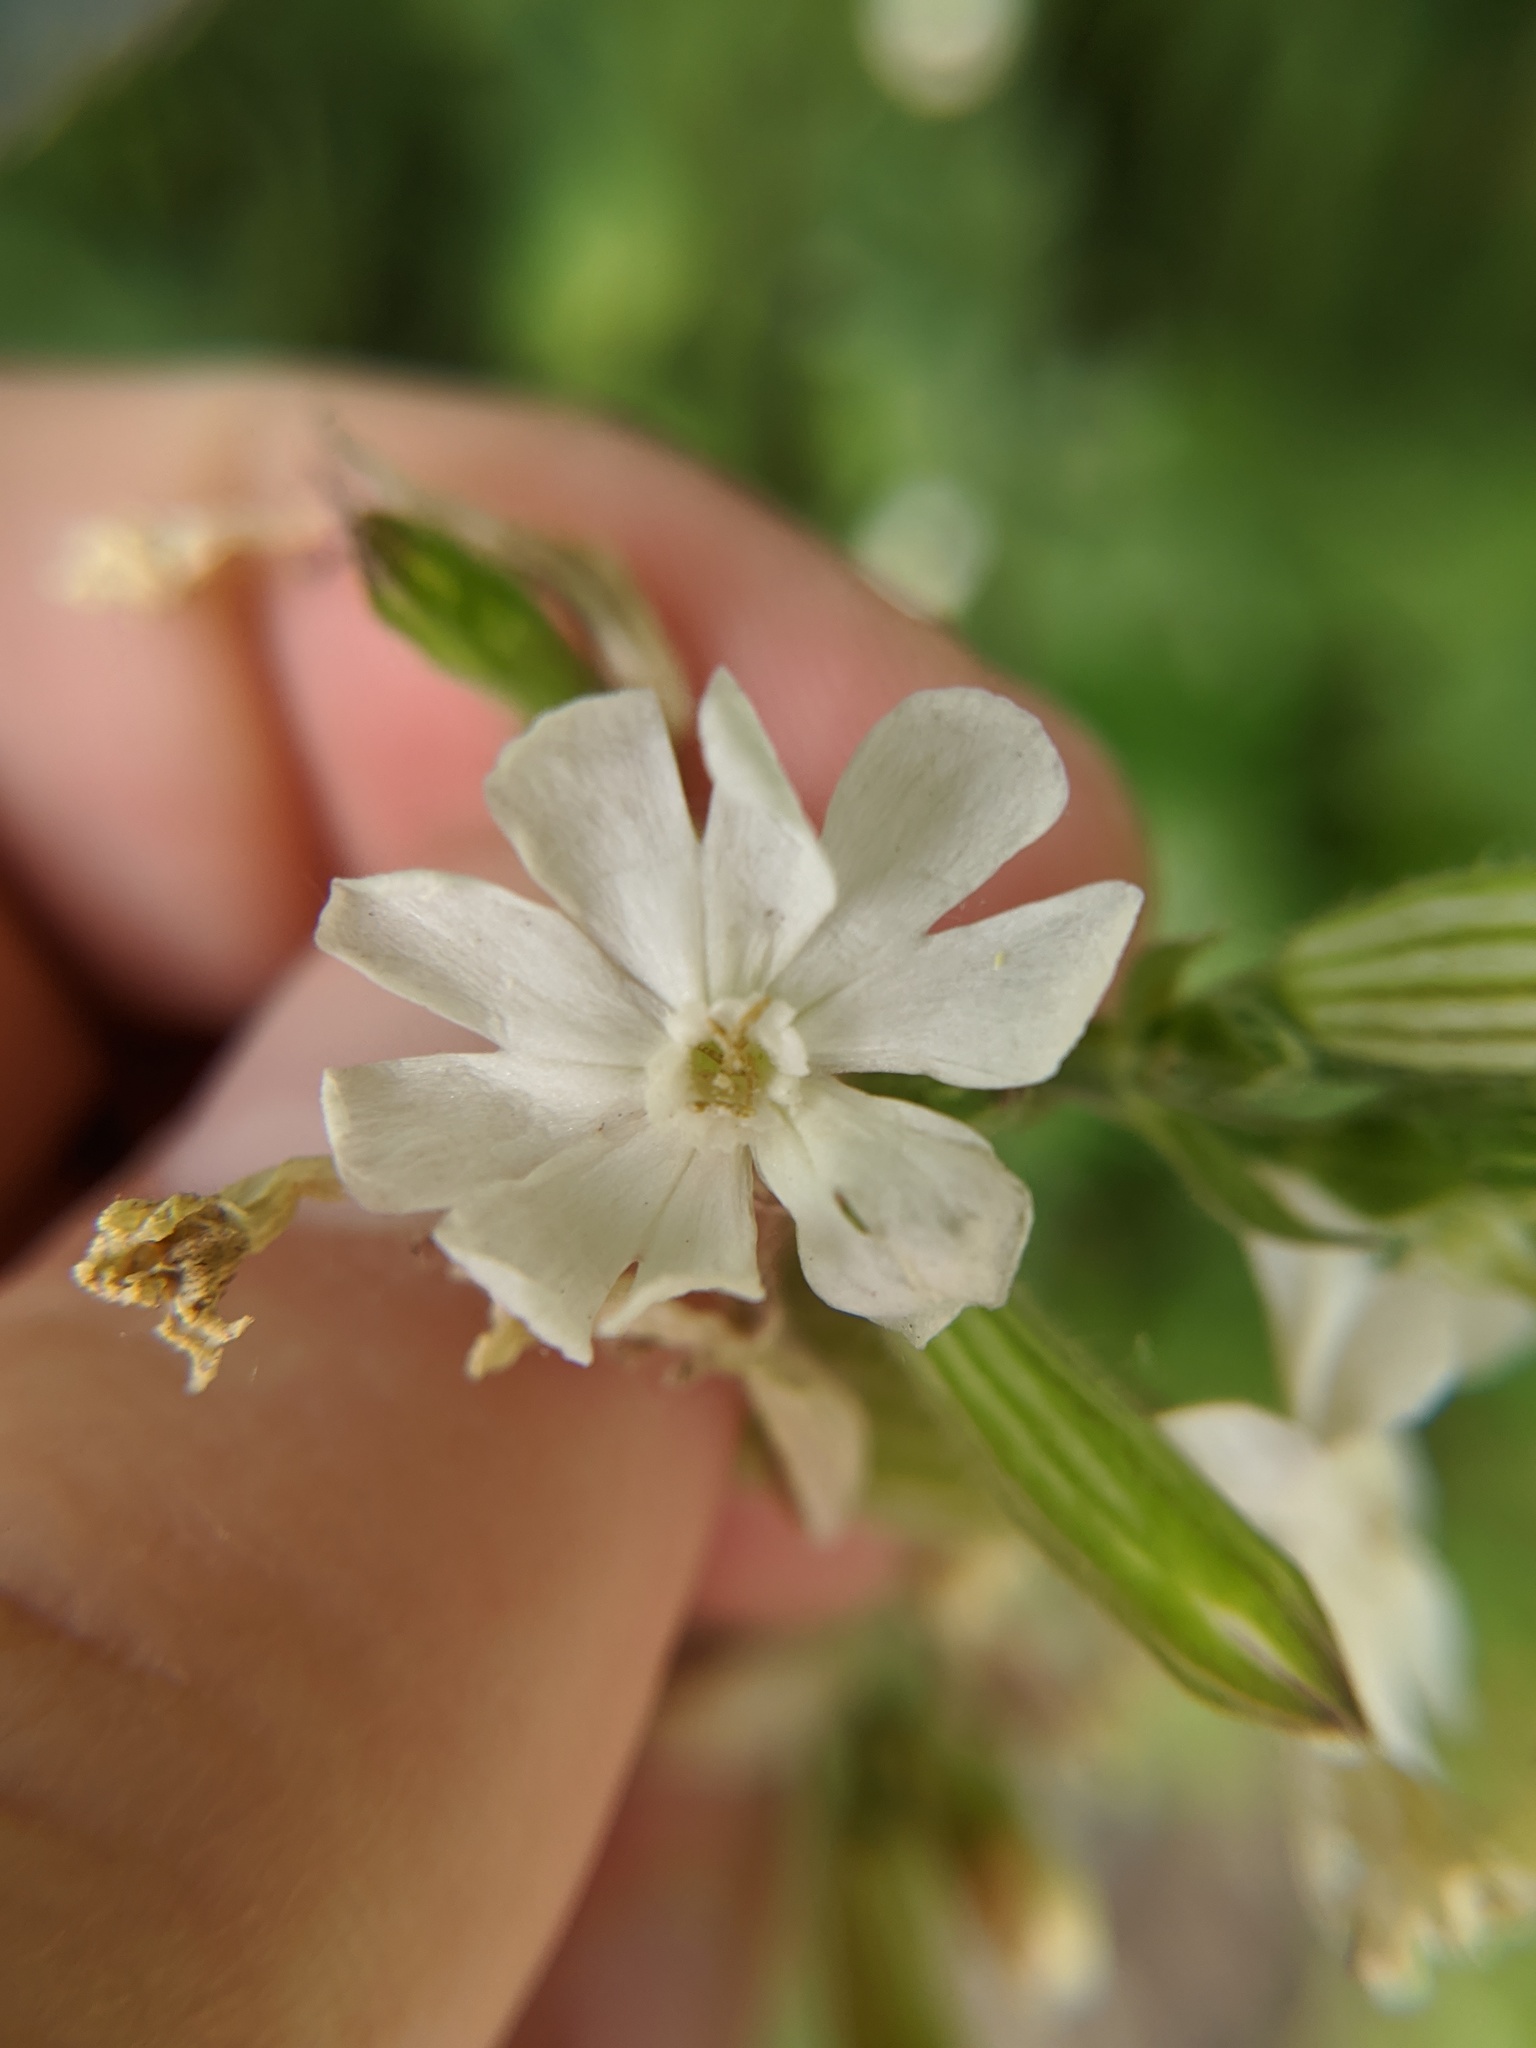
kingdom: Plantae
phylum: Tracheophyta
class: Magnoliopsida
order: Caryophyllales
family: Caryophyllaceae
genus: Silene
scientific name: Silene latifolia
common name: White campion
